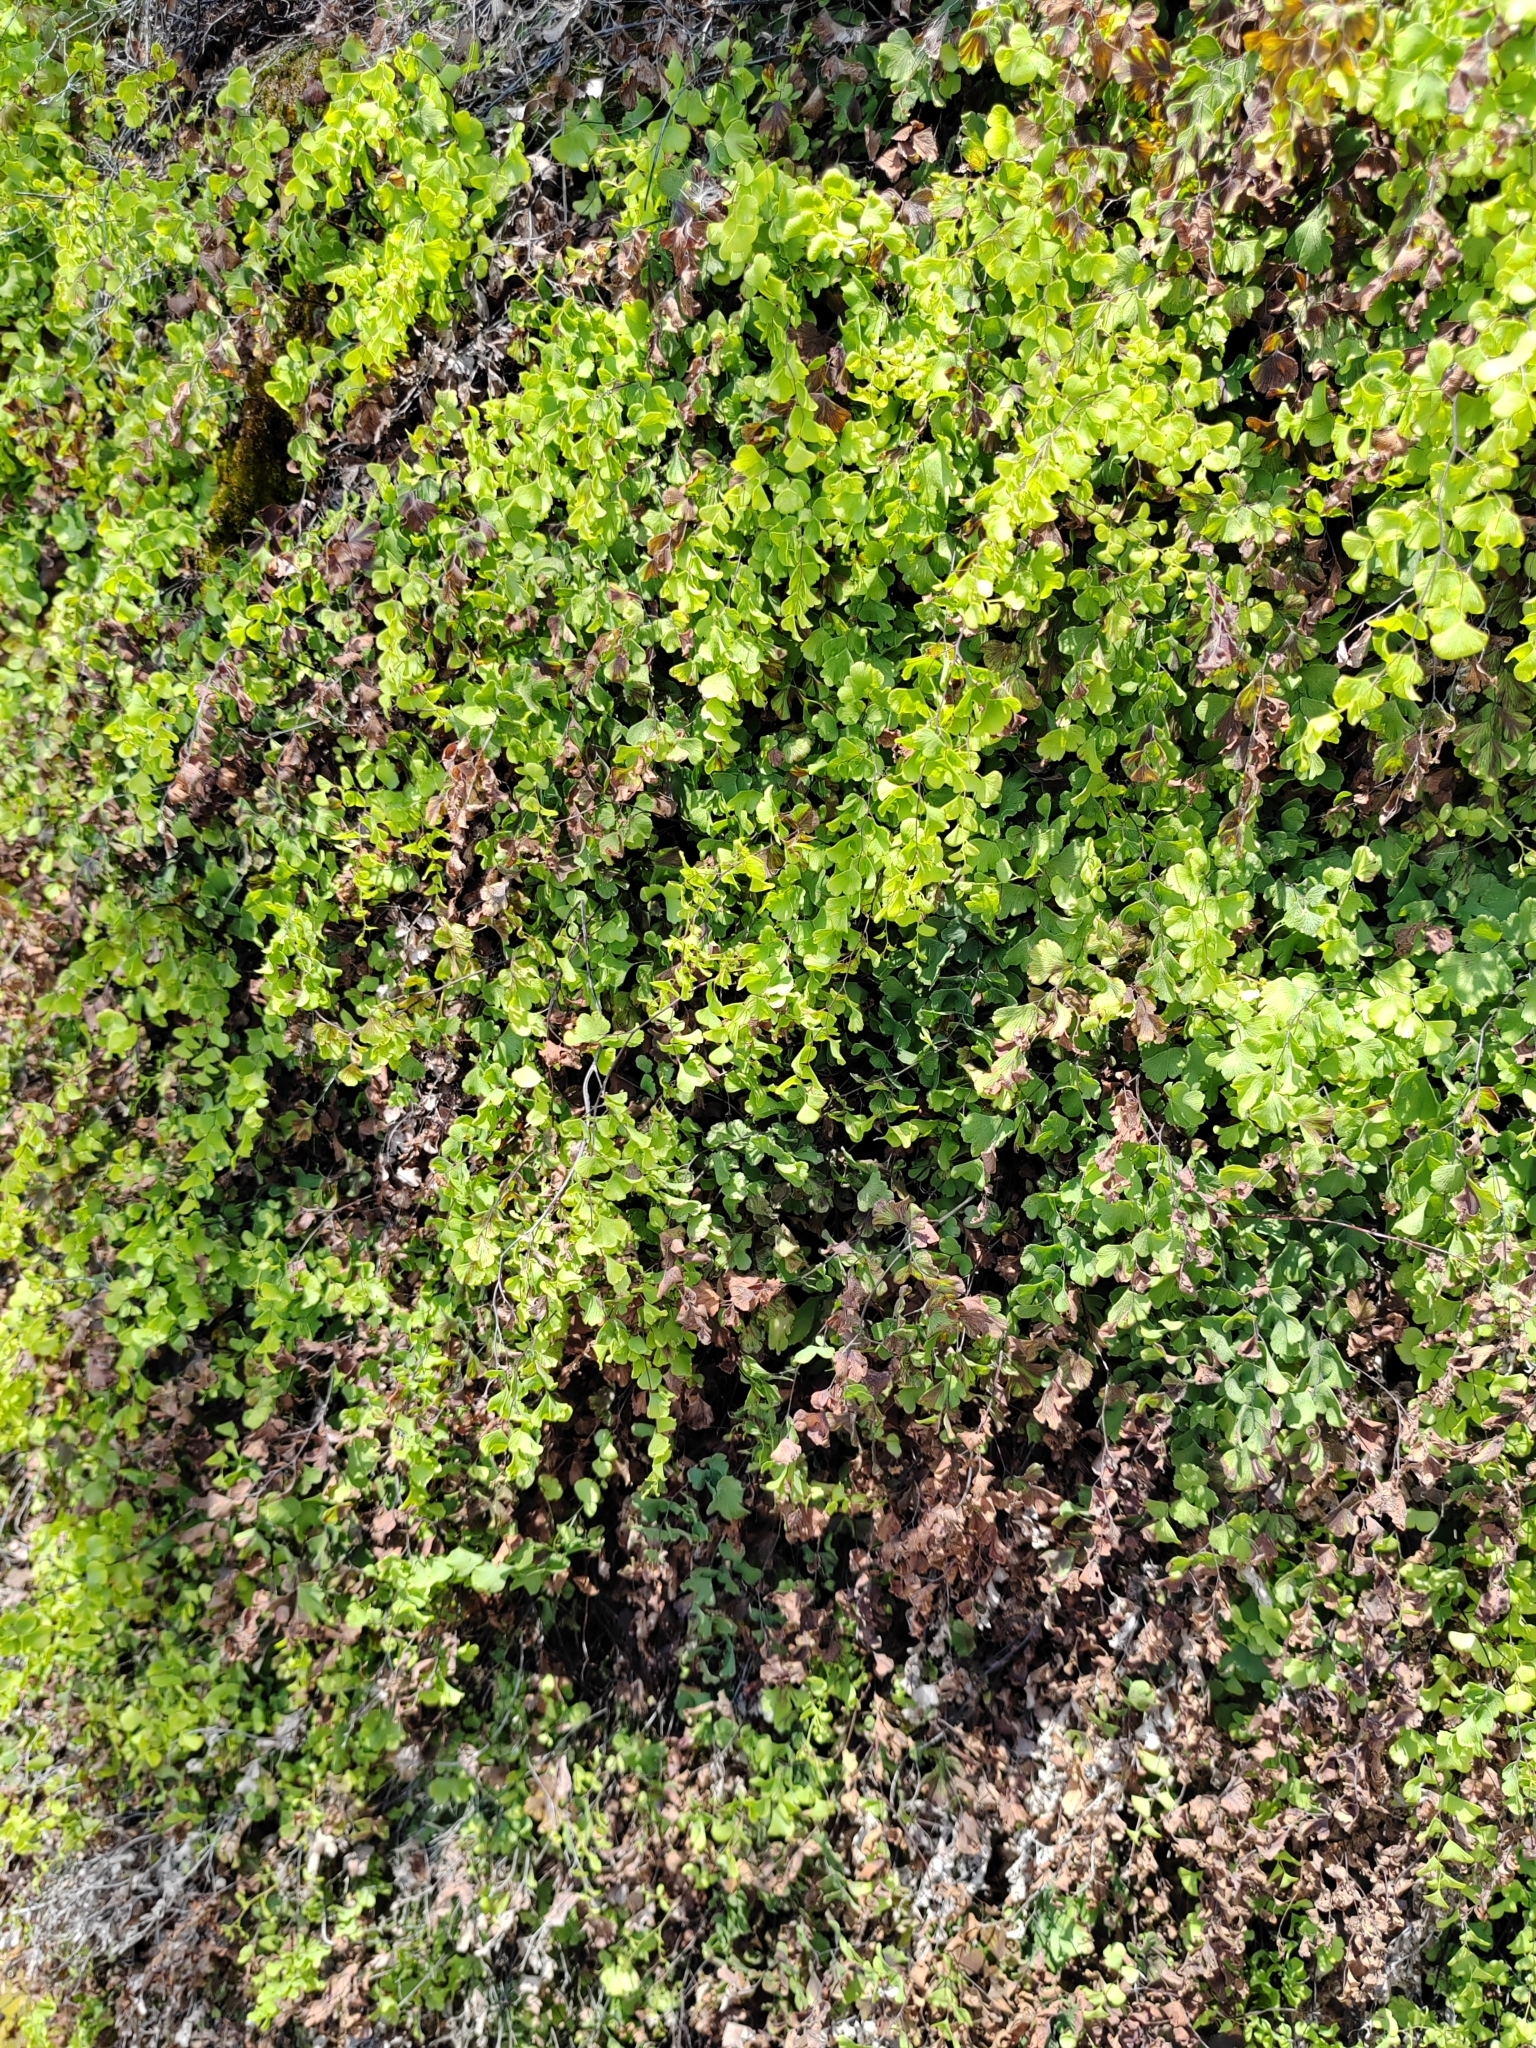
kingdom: Plantae
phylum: Tracheophyta
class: Polypodiopsida
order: Polypodiales
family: Pteridaceae
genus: Adiantum
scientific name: Adiantum capillus-veneris
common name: Maidenhair fern
